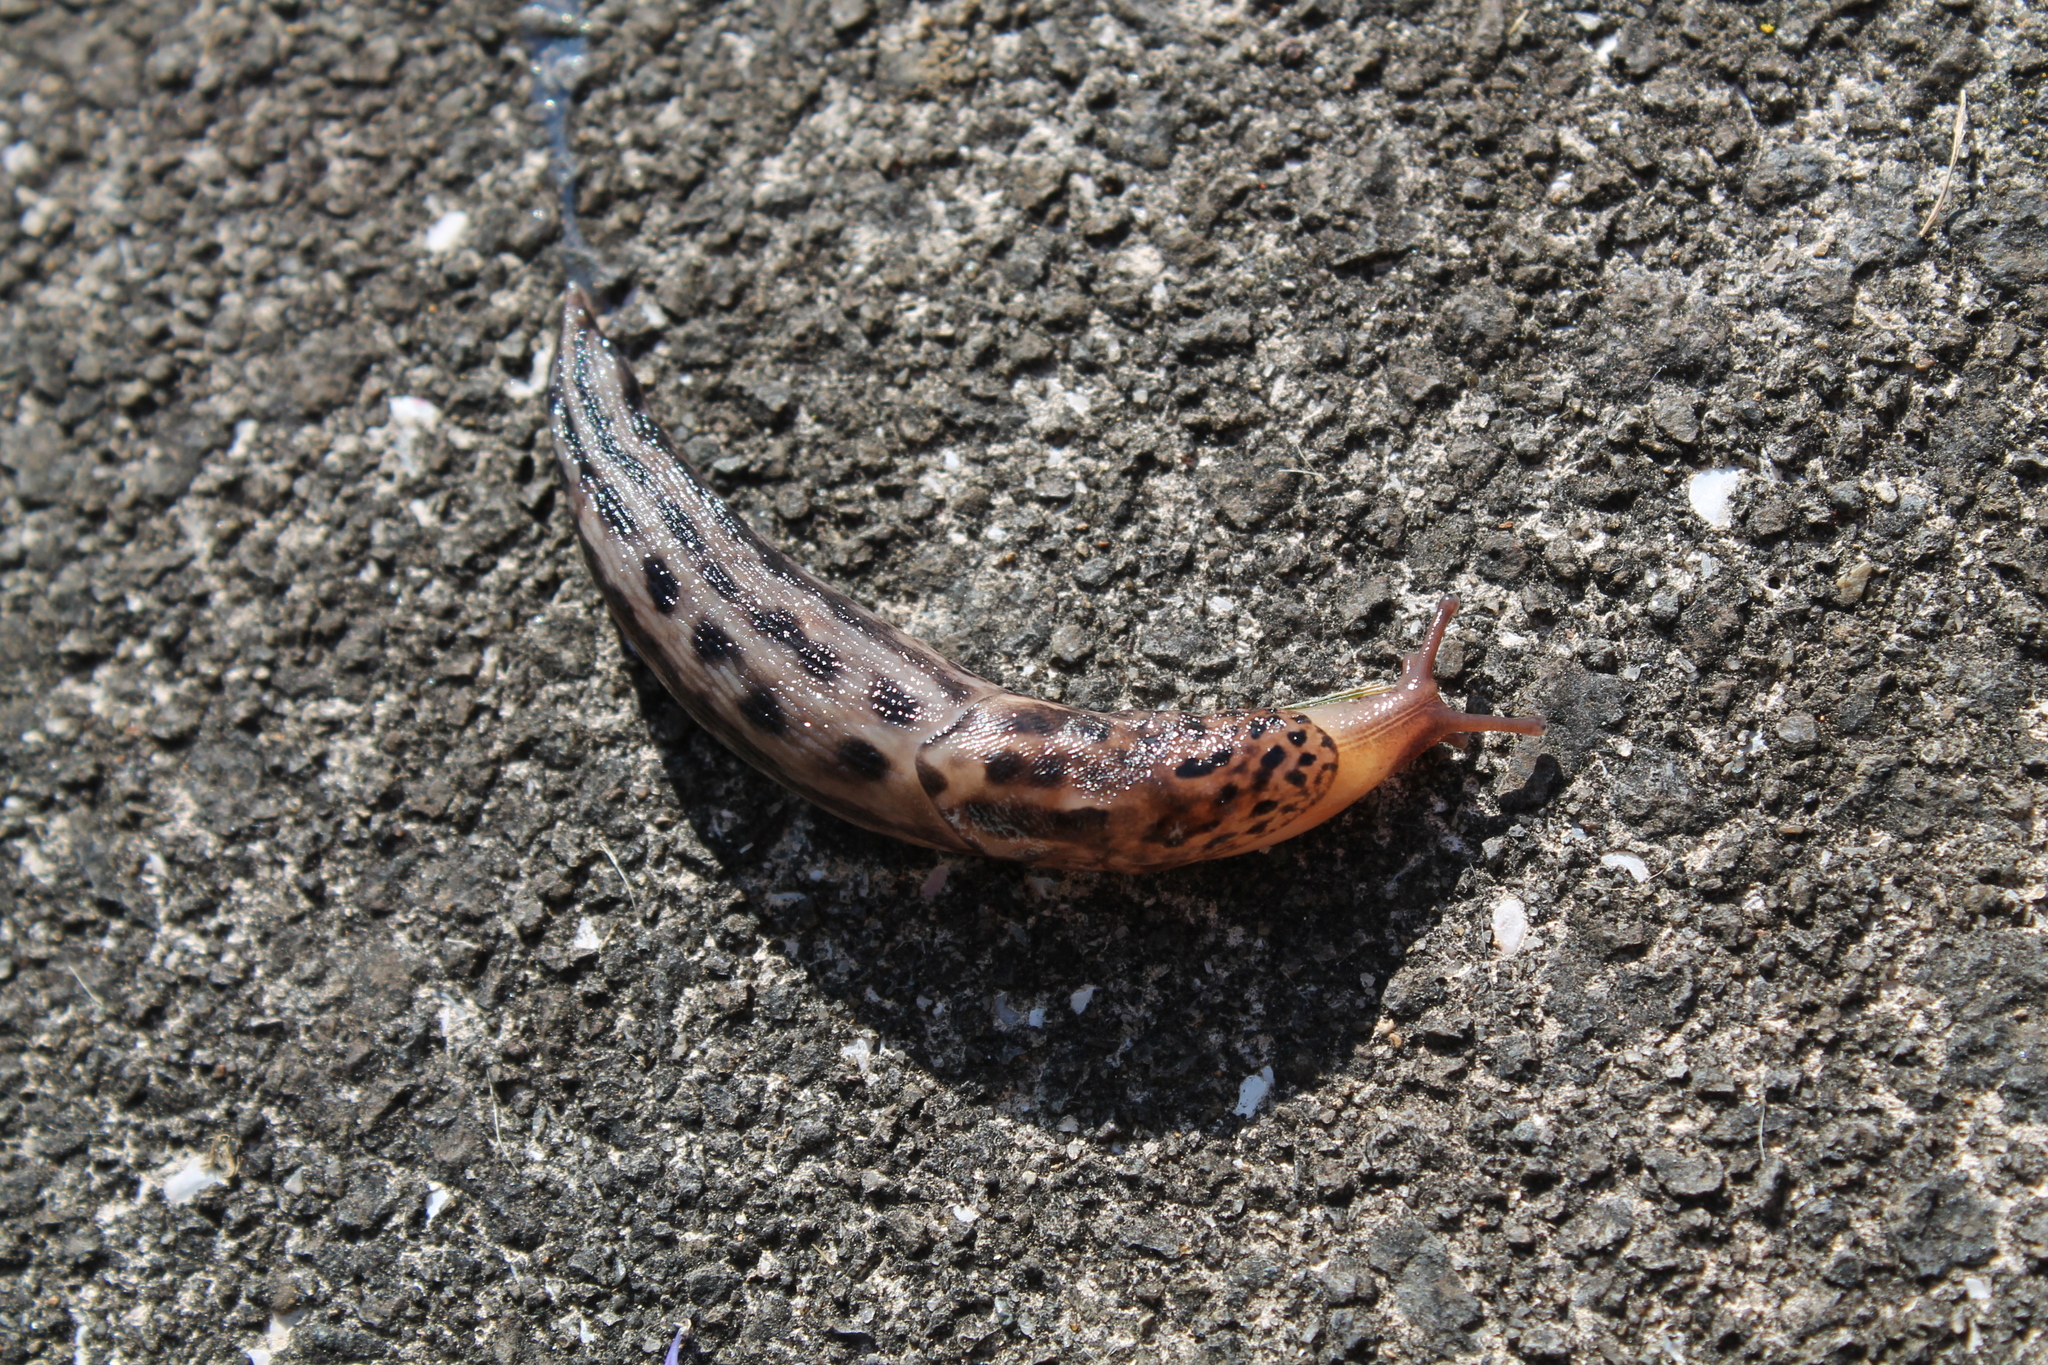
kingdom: Animalia
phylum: Mollusca
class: Gastropoda
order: Stylommatophora
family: Limacidae
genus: Limax
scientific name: Limax maximus
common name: Great grey slug
